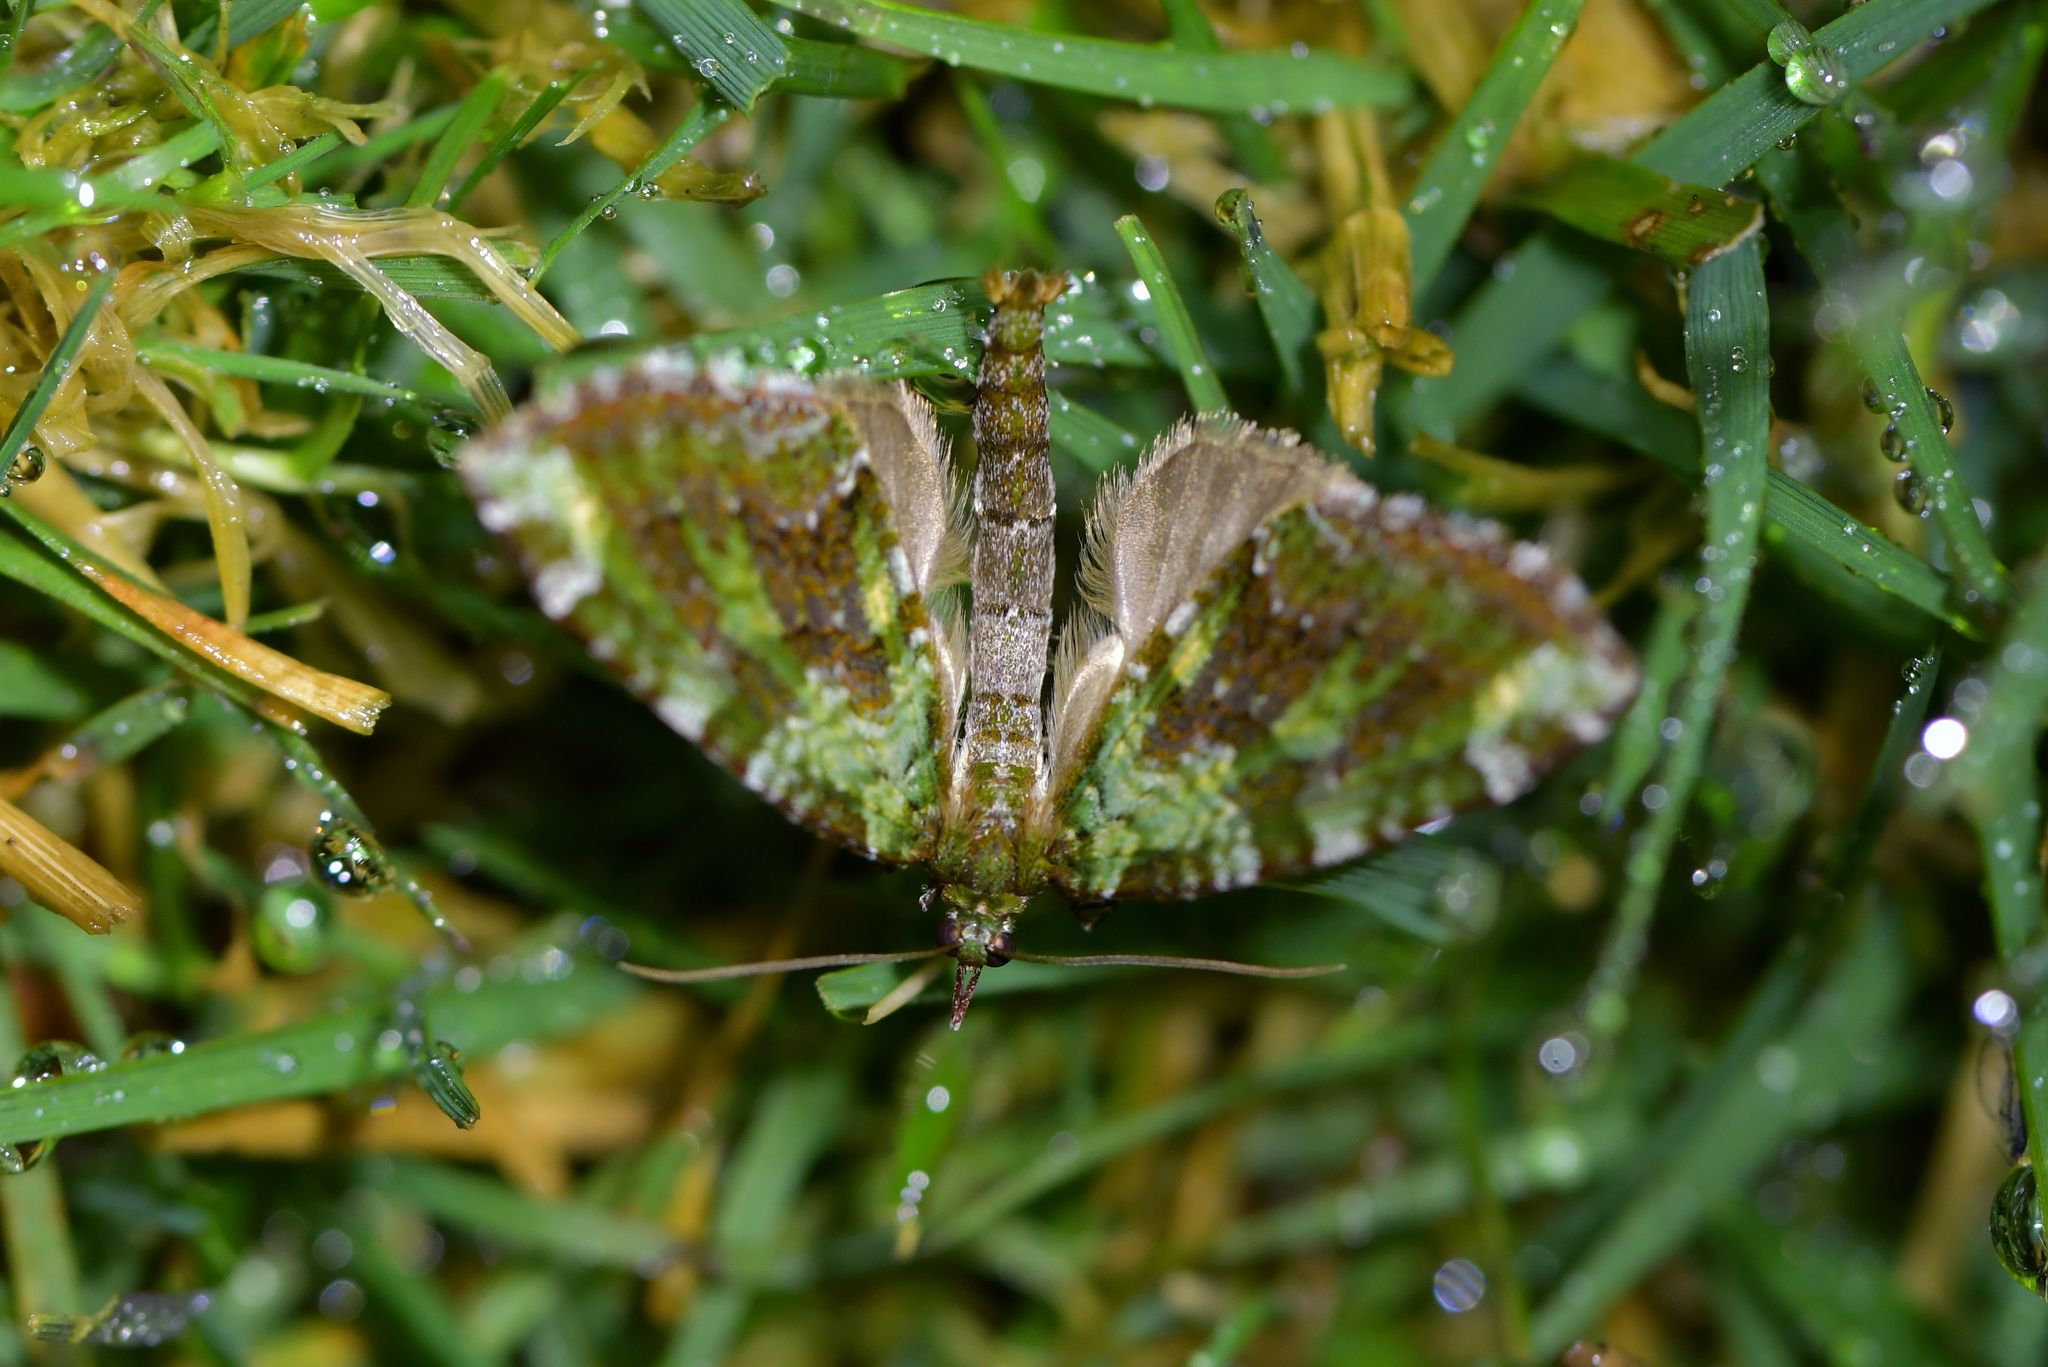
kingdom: Animalia
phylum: Arthropoda
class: Insecta
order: Lepidoptera
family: Geometridae
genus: Tatosoma
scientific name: Tatosoma apicipallida
